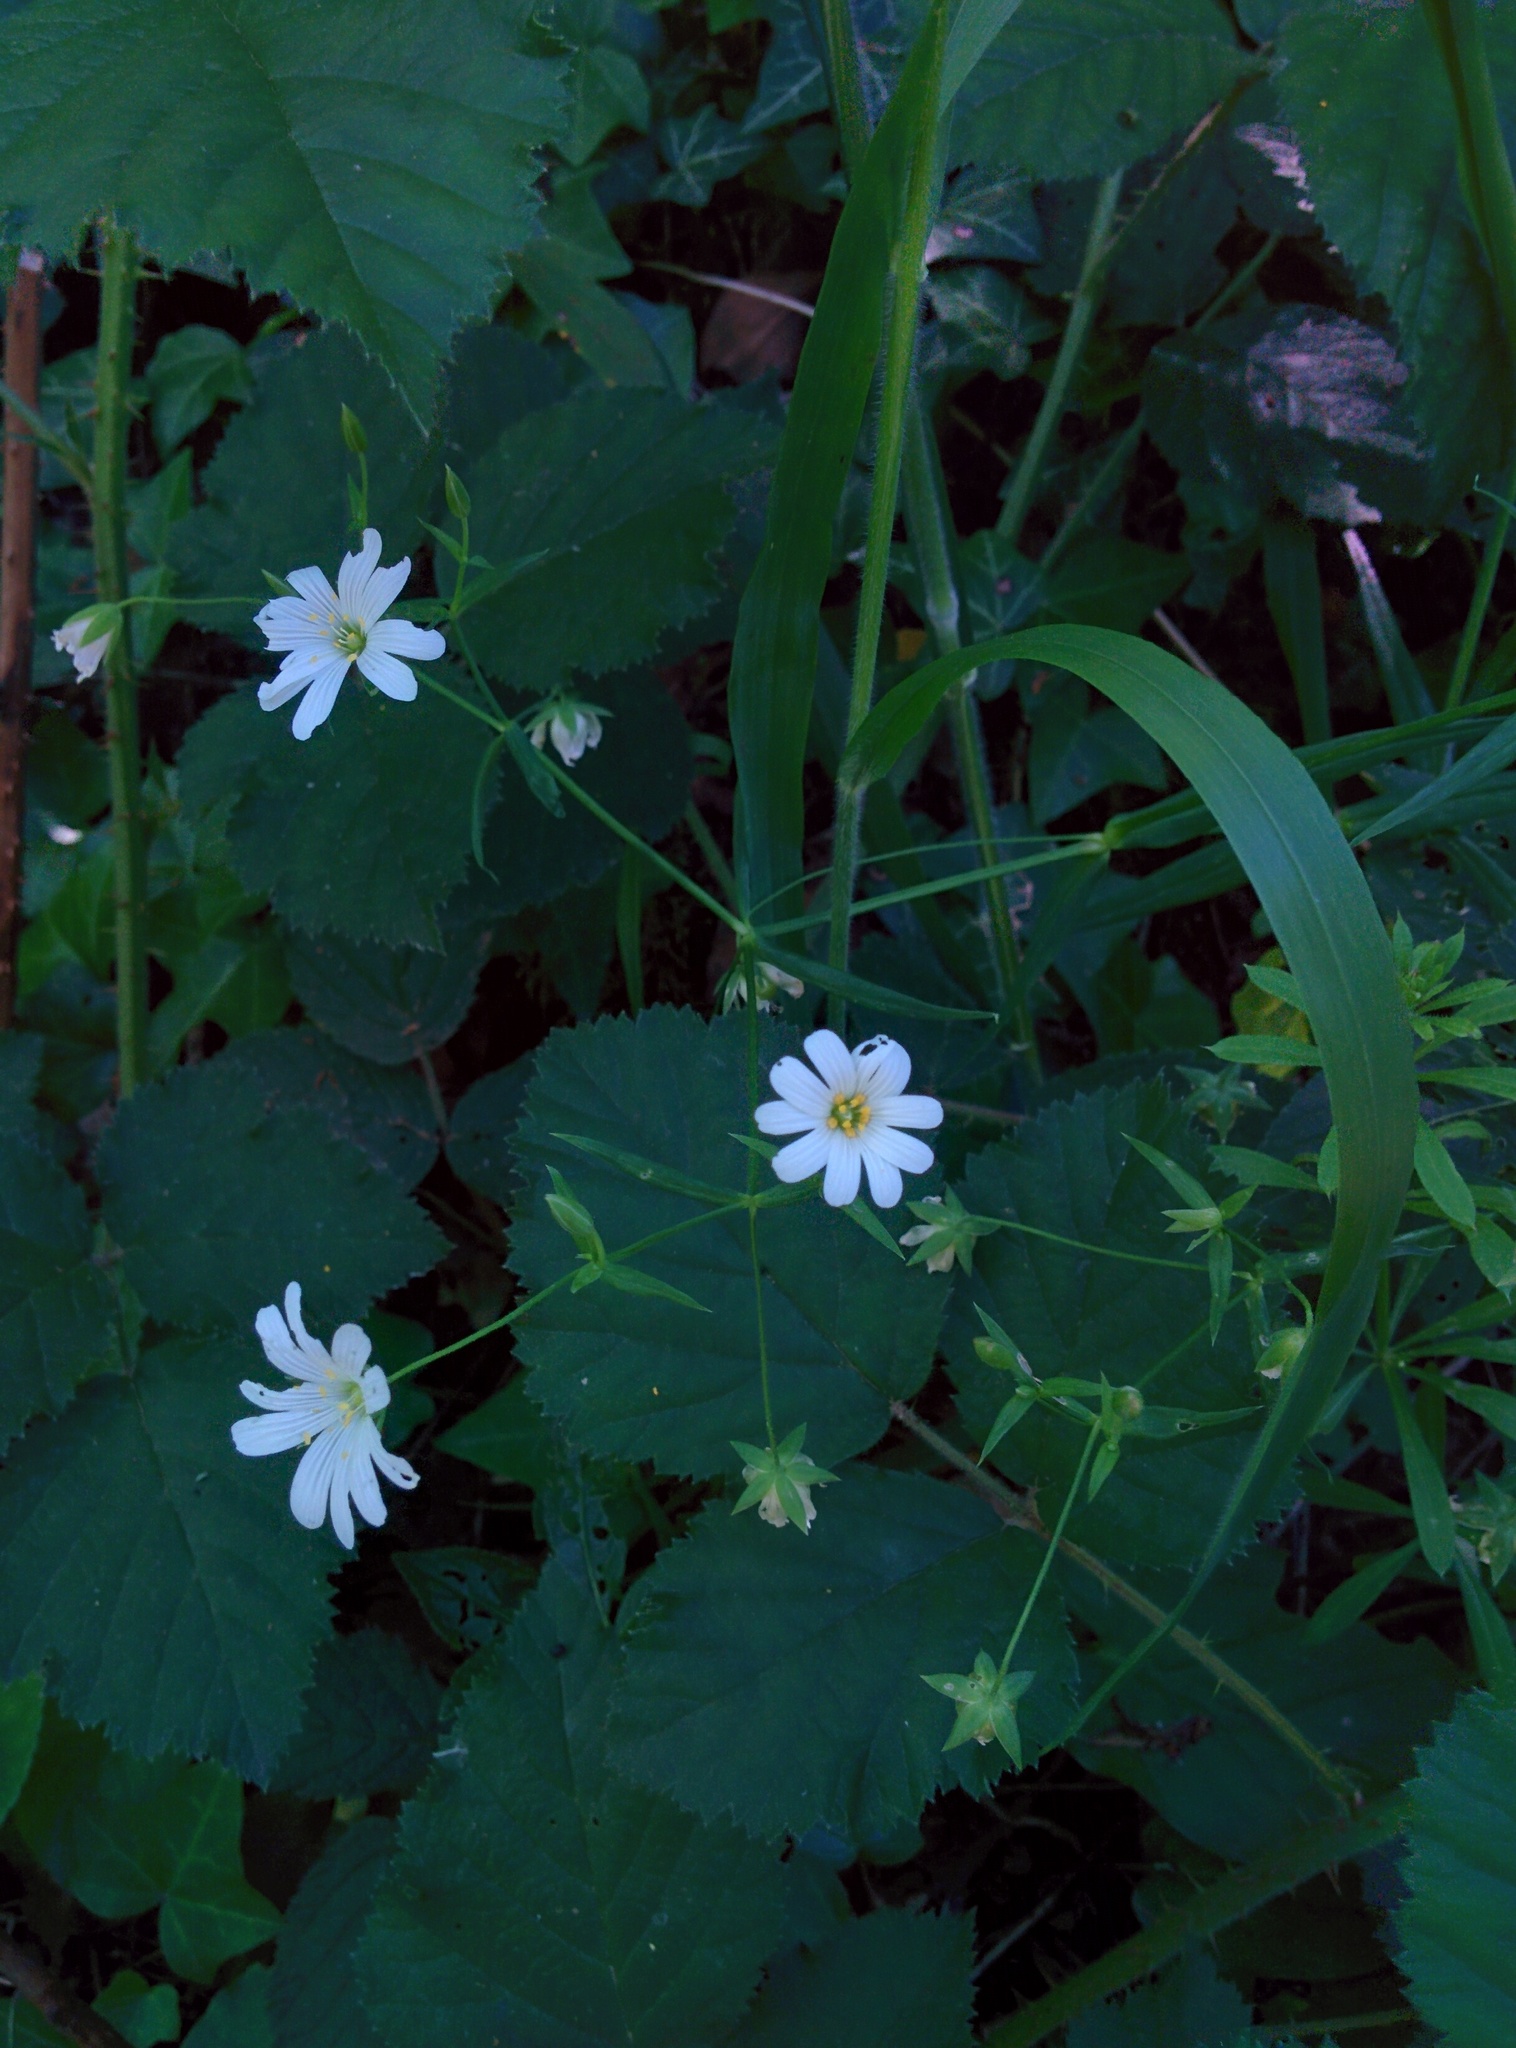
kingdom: Plantae
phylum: Tracheophyta
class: Magnoliopsida
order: Caryophyllales
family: Caryophyllaceae
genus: Rabelera
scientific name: Rabelera holostea
